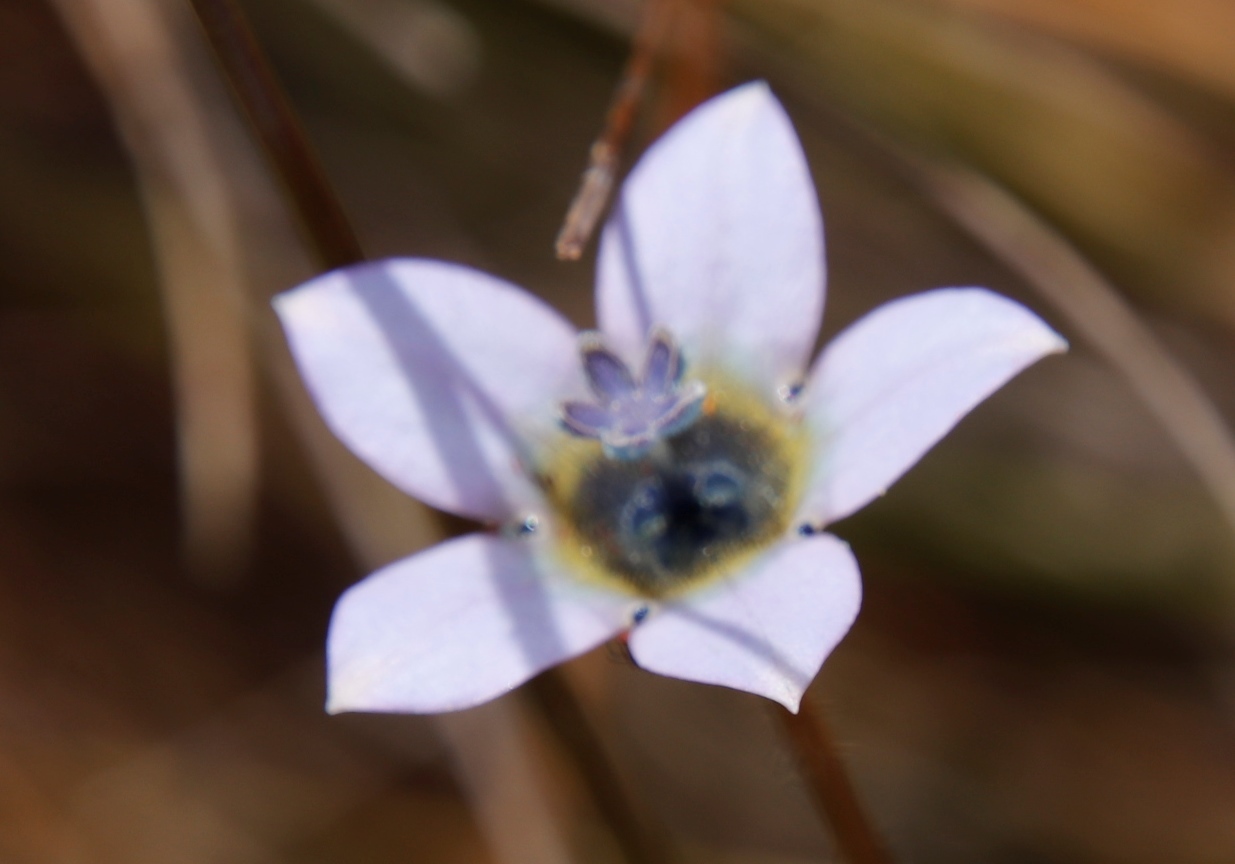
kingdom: Plantae
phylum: Tracheophyta
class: Magnoliopsida
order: Asterales
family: Campanulaceae
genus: Wahlenbergia
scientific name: Wahlenbergia capensis
